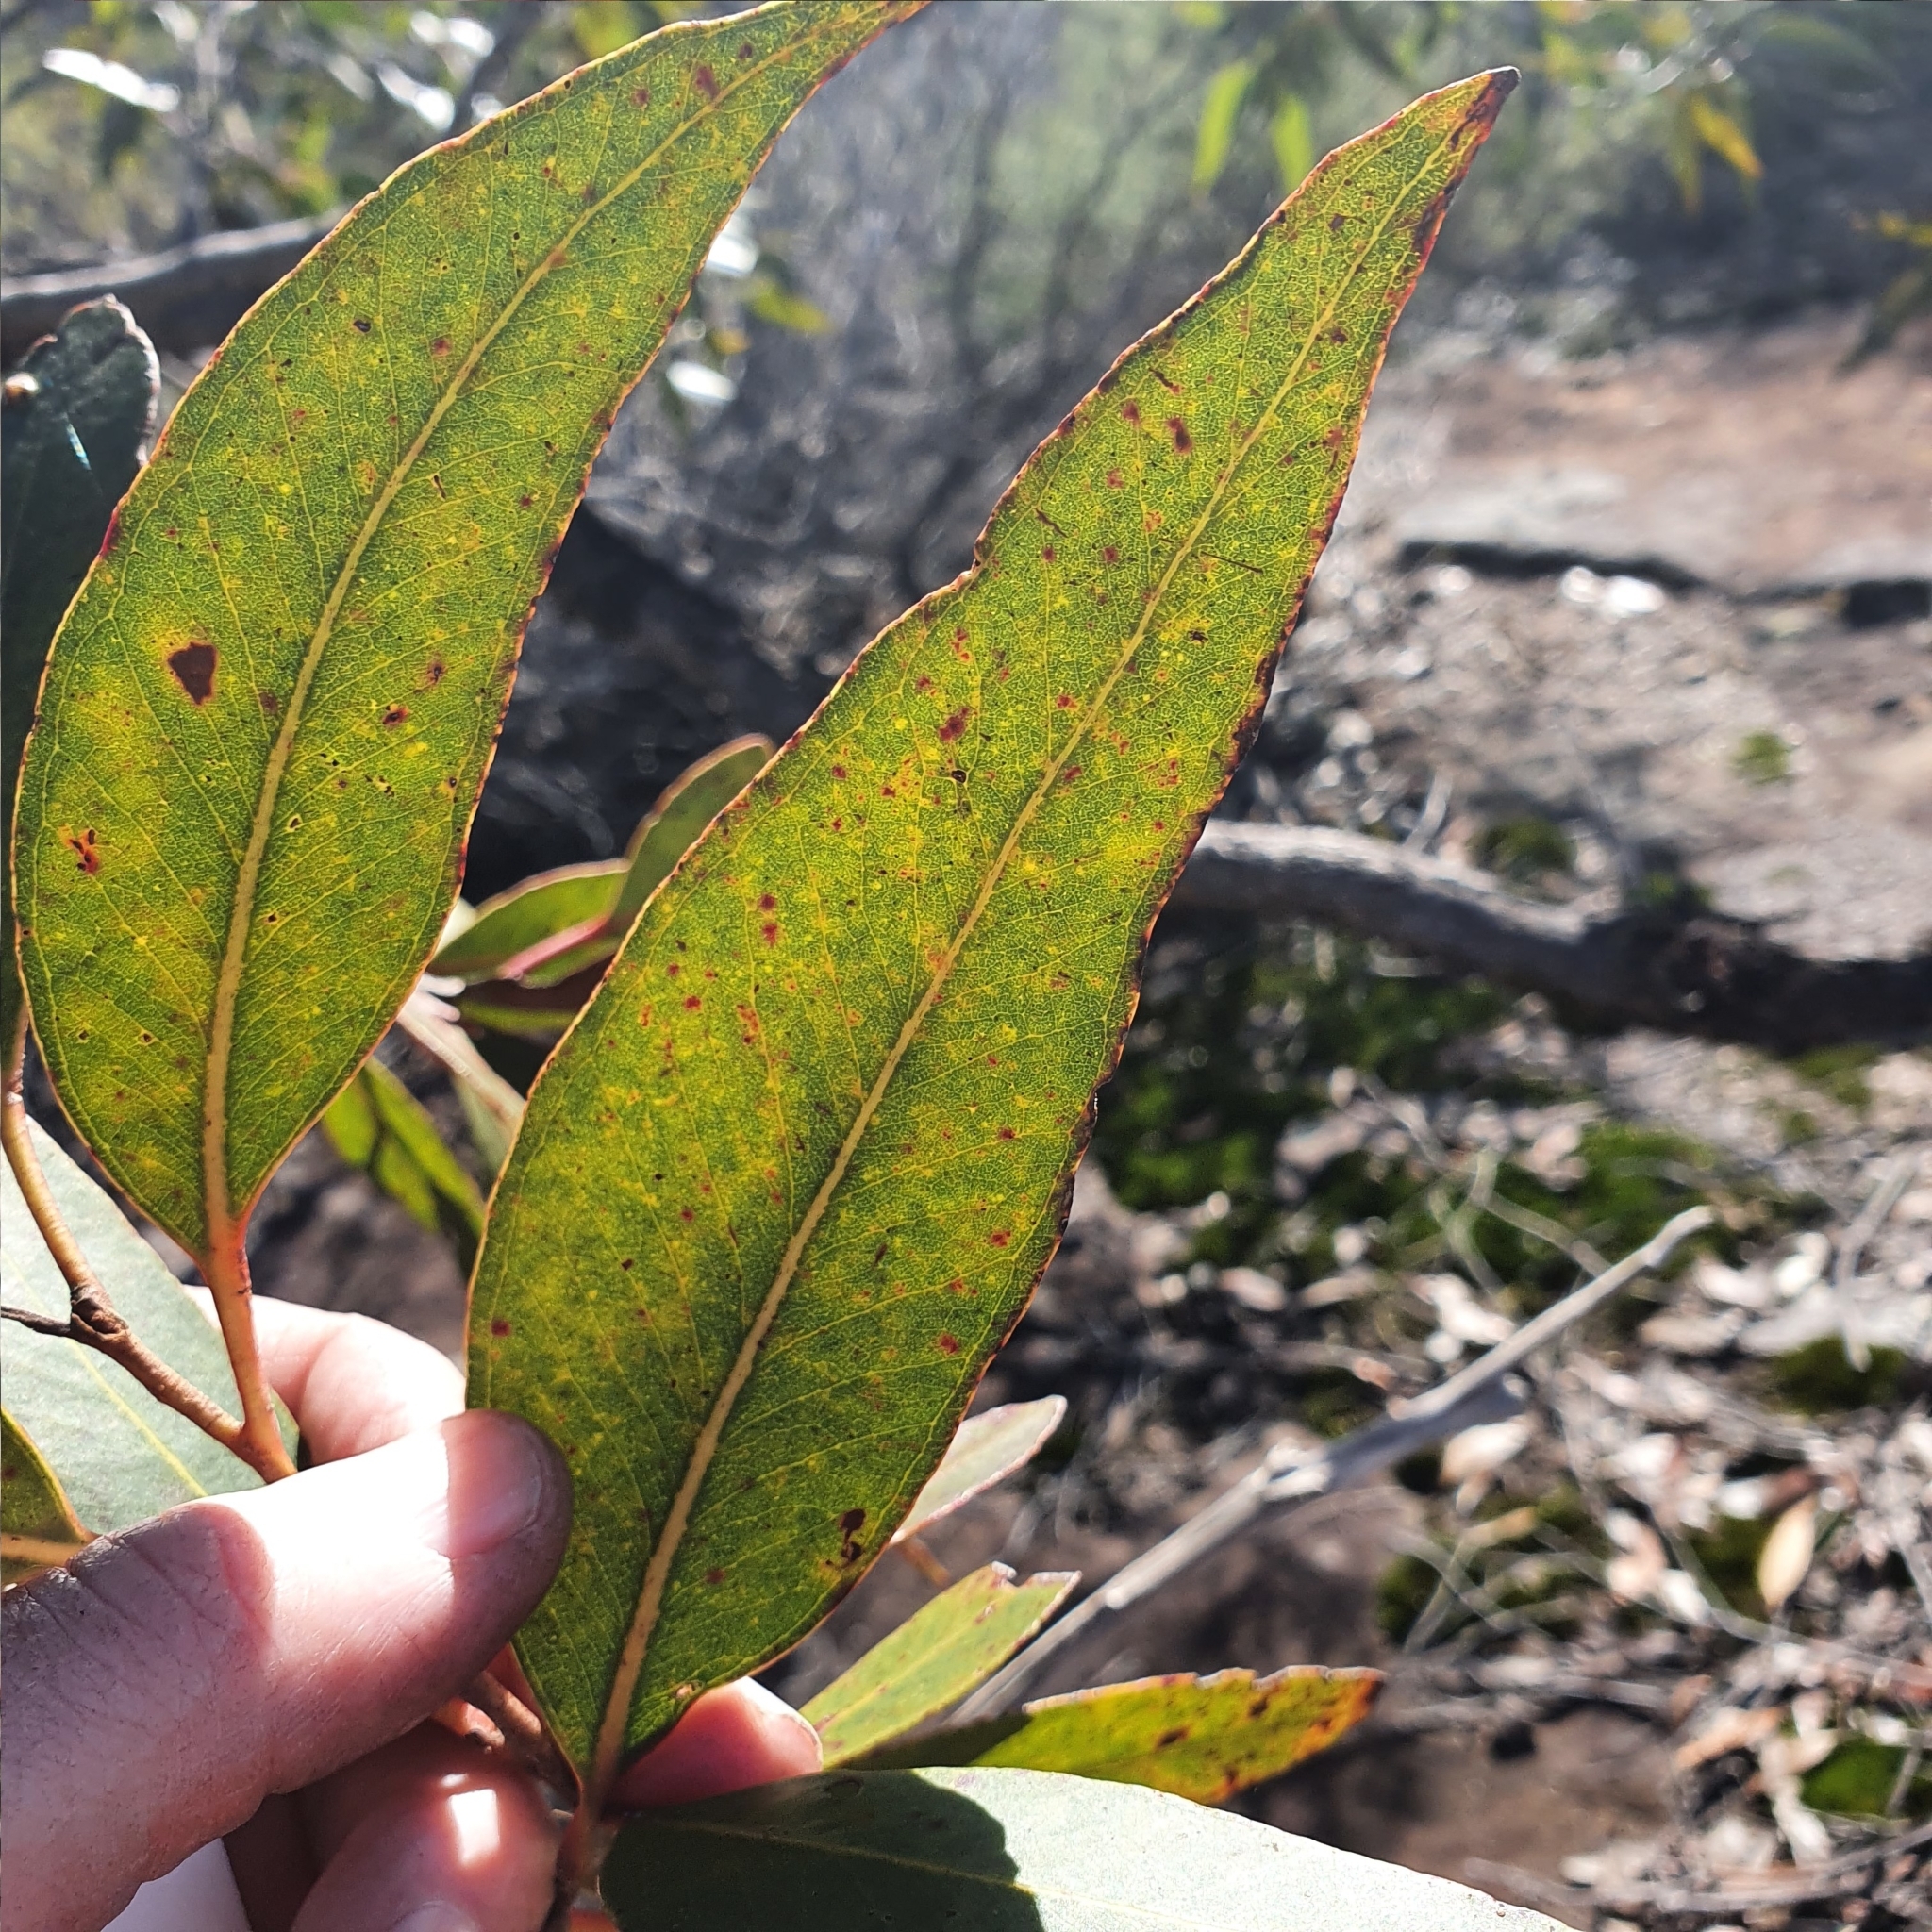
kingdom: Plantae
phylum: Tracheophyta
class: Magnoliopsida
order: Myrtales
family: Myrtaceae
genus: Eucalyptus
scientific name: Eucalyptus umbra
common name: White-mahogany
